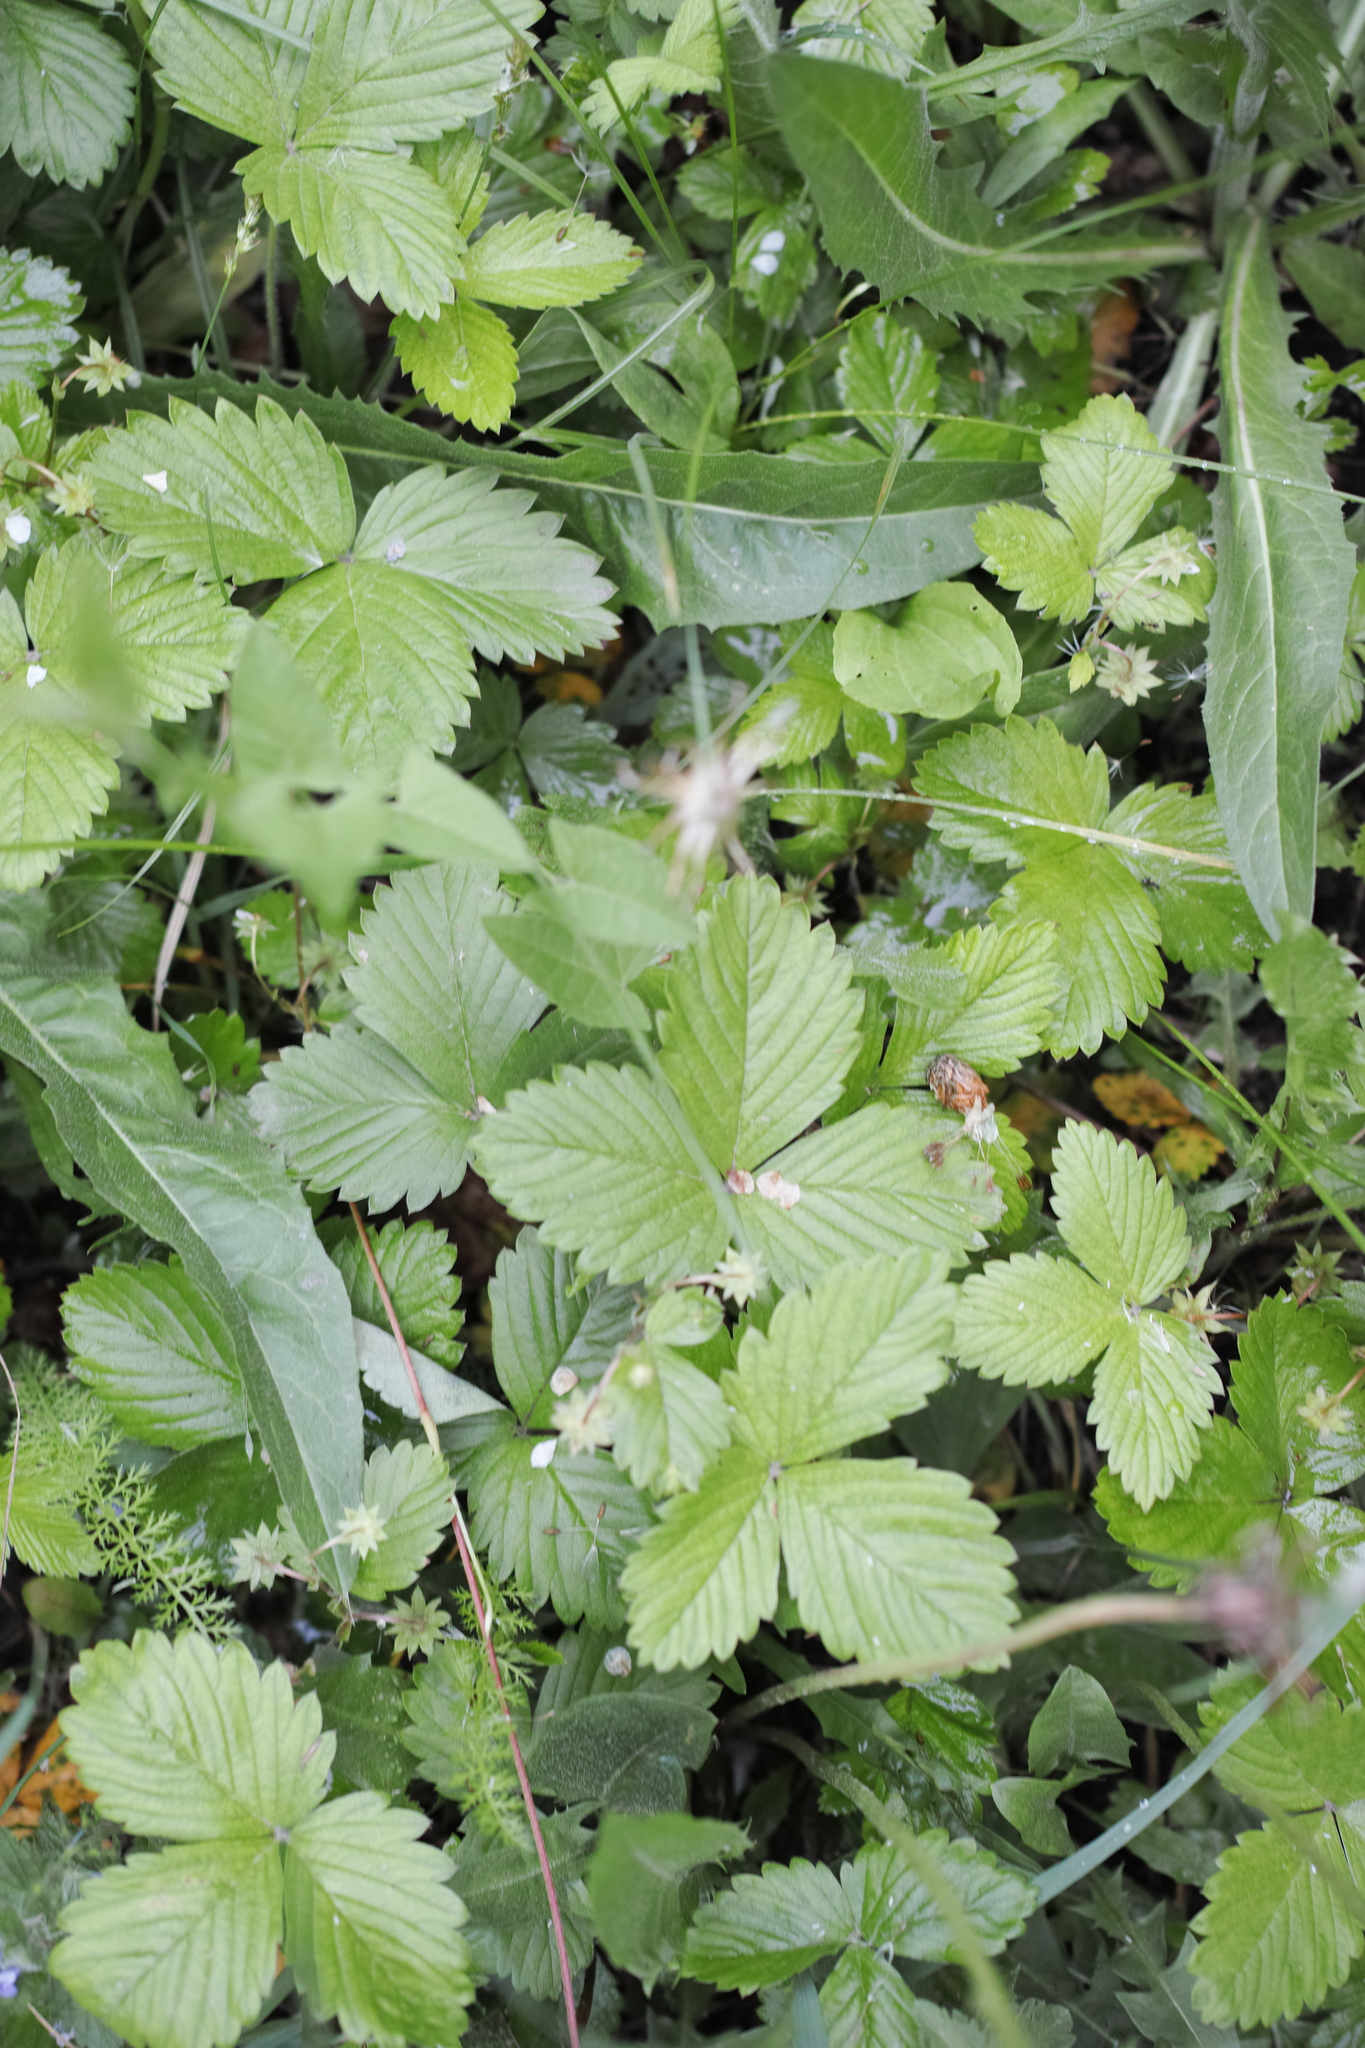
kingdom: Plantae
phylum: Tracheophyta
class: Magnoliopsida
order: Rosales
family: Rosaceae
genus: Fragaria
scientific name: Fragaria vesca
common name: Wild strawberry
